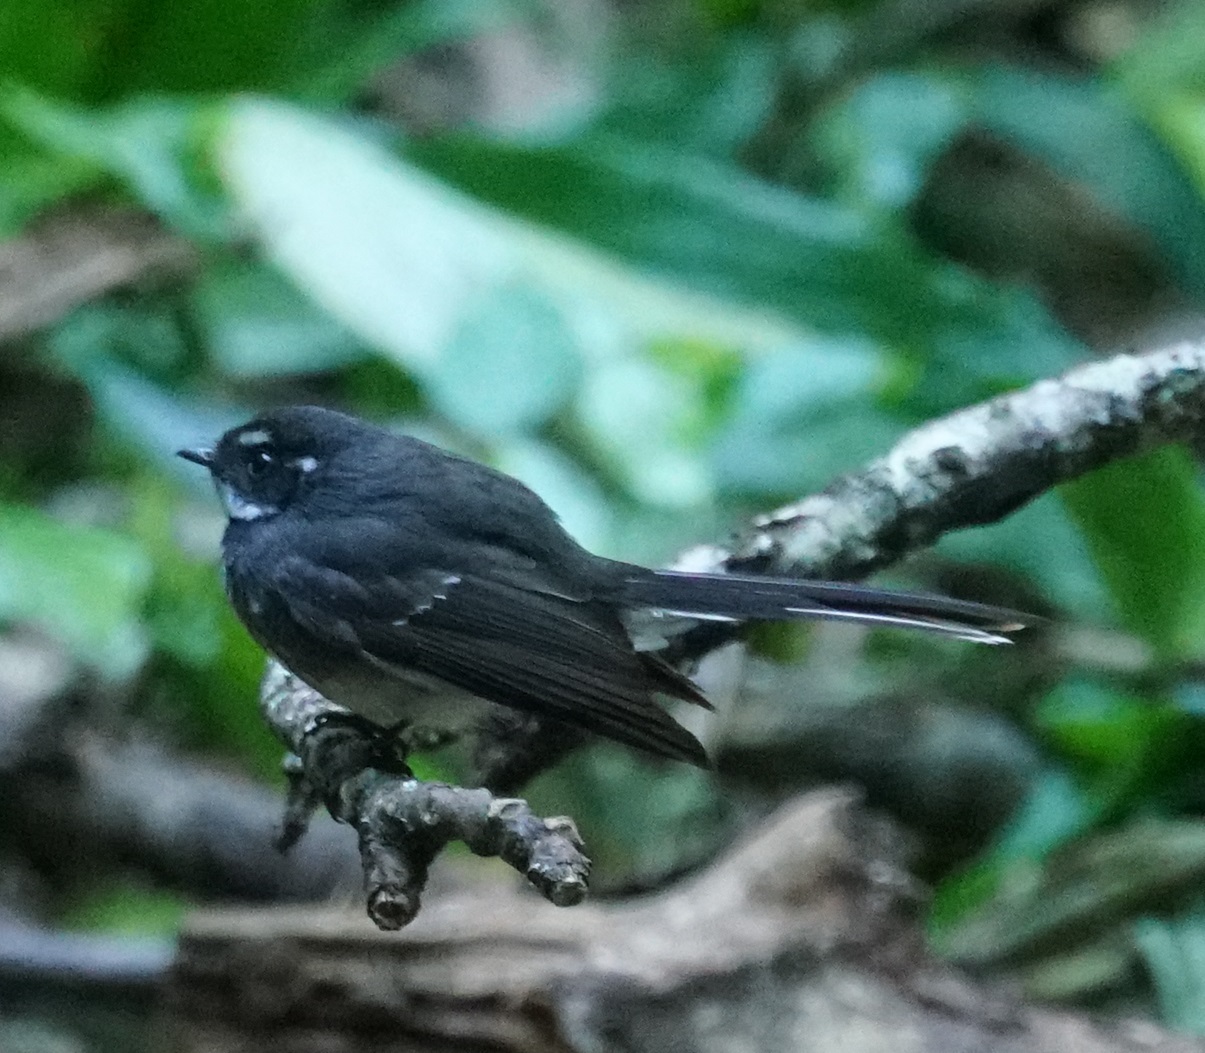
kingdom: Animalia
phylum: Chordata
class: Aves
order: Passeriformes
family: Rhipiduridae
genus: Rhipidura
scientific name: Rhipidura albiscapa
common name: Grey fantail
